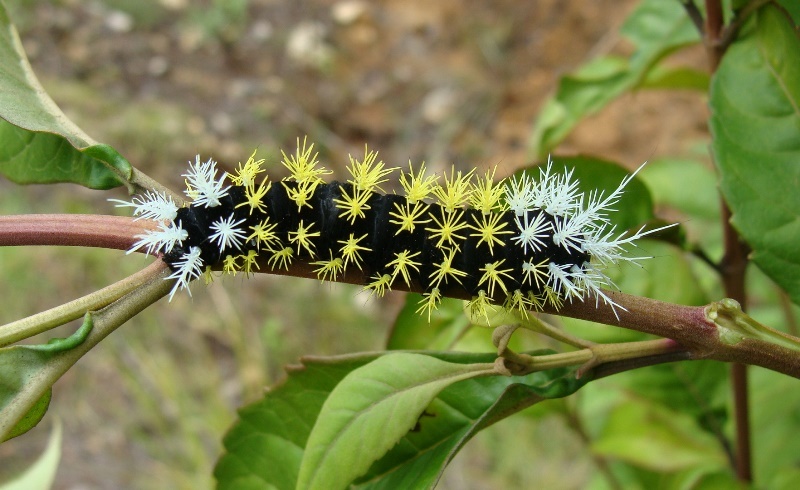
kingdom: Animalia
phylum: Arthropoda
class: Insecta
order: Lepidoptera
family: Saturniidae
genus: Leucanella
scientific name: Leucanella saturata
